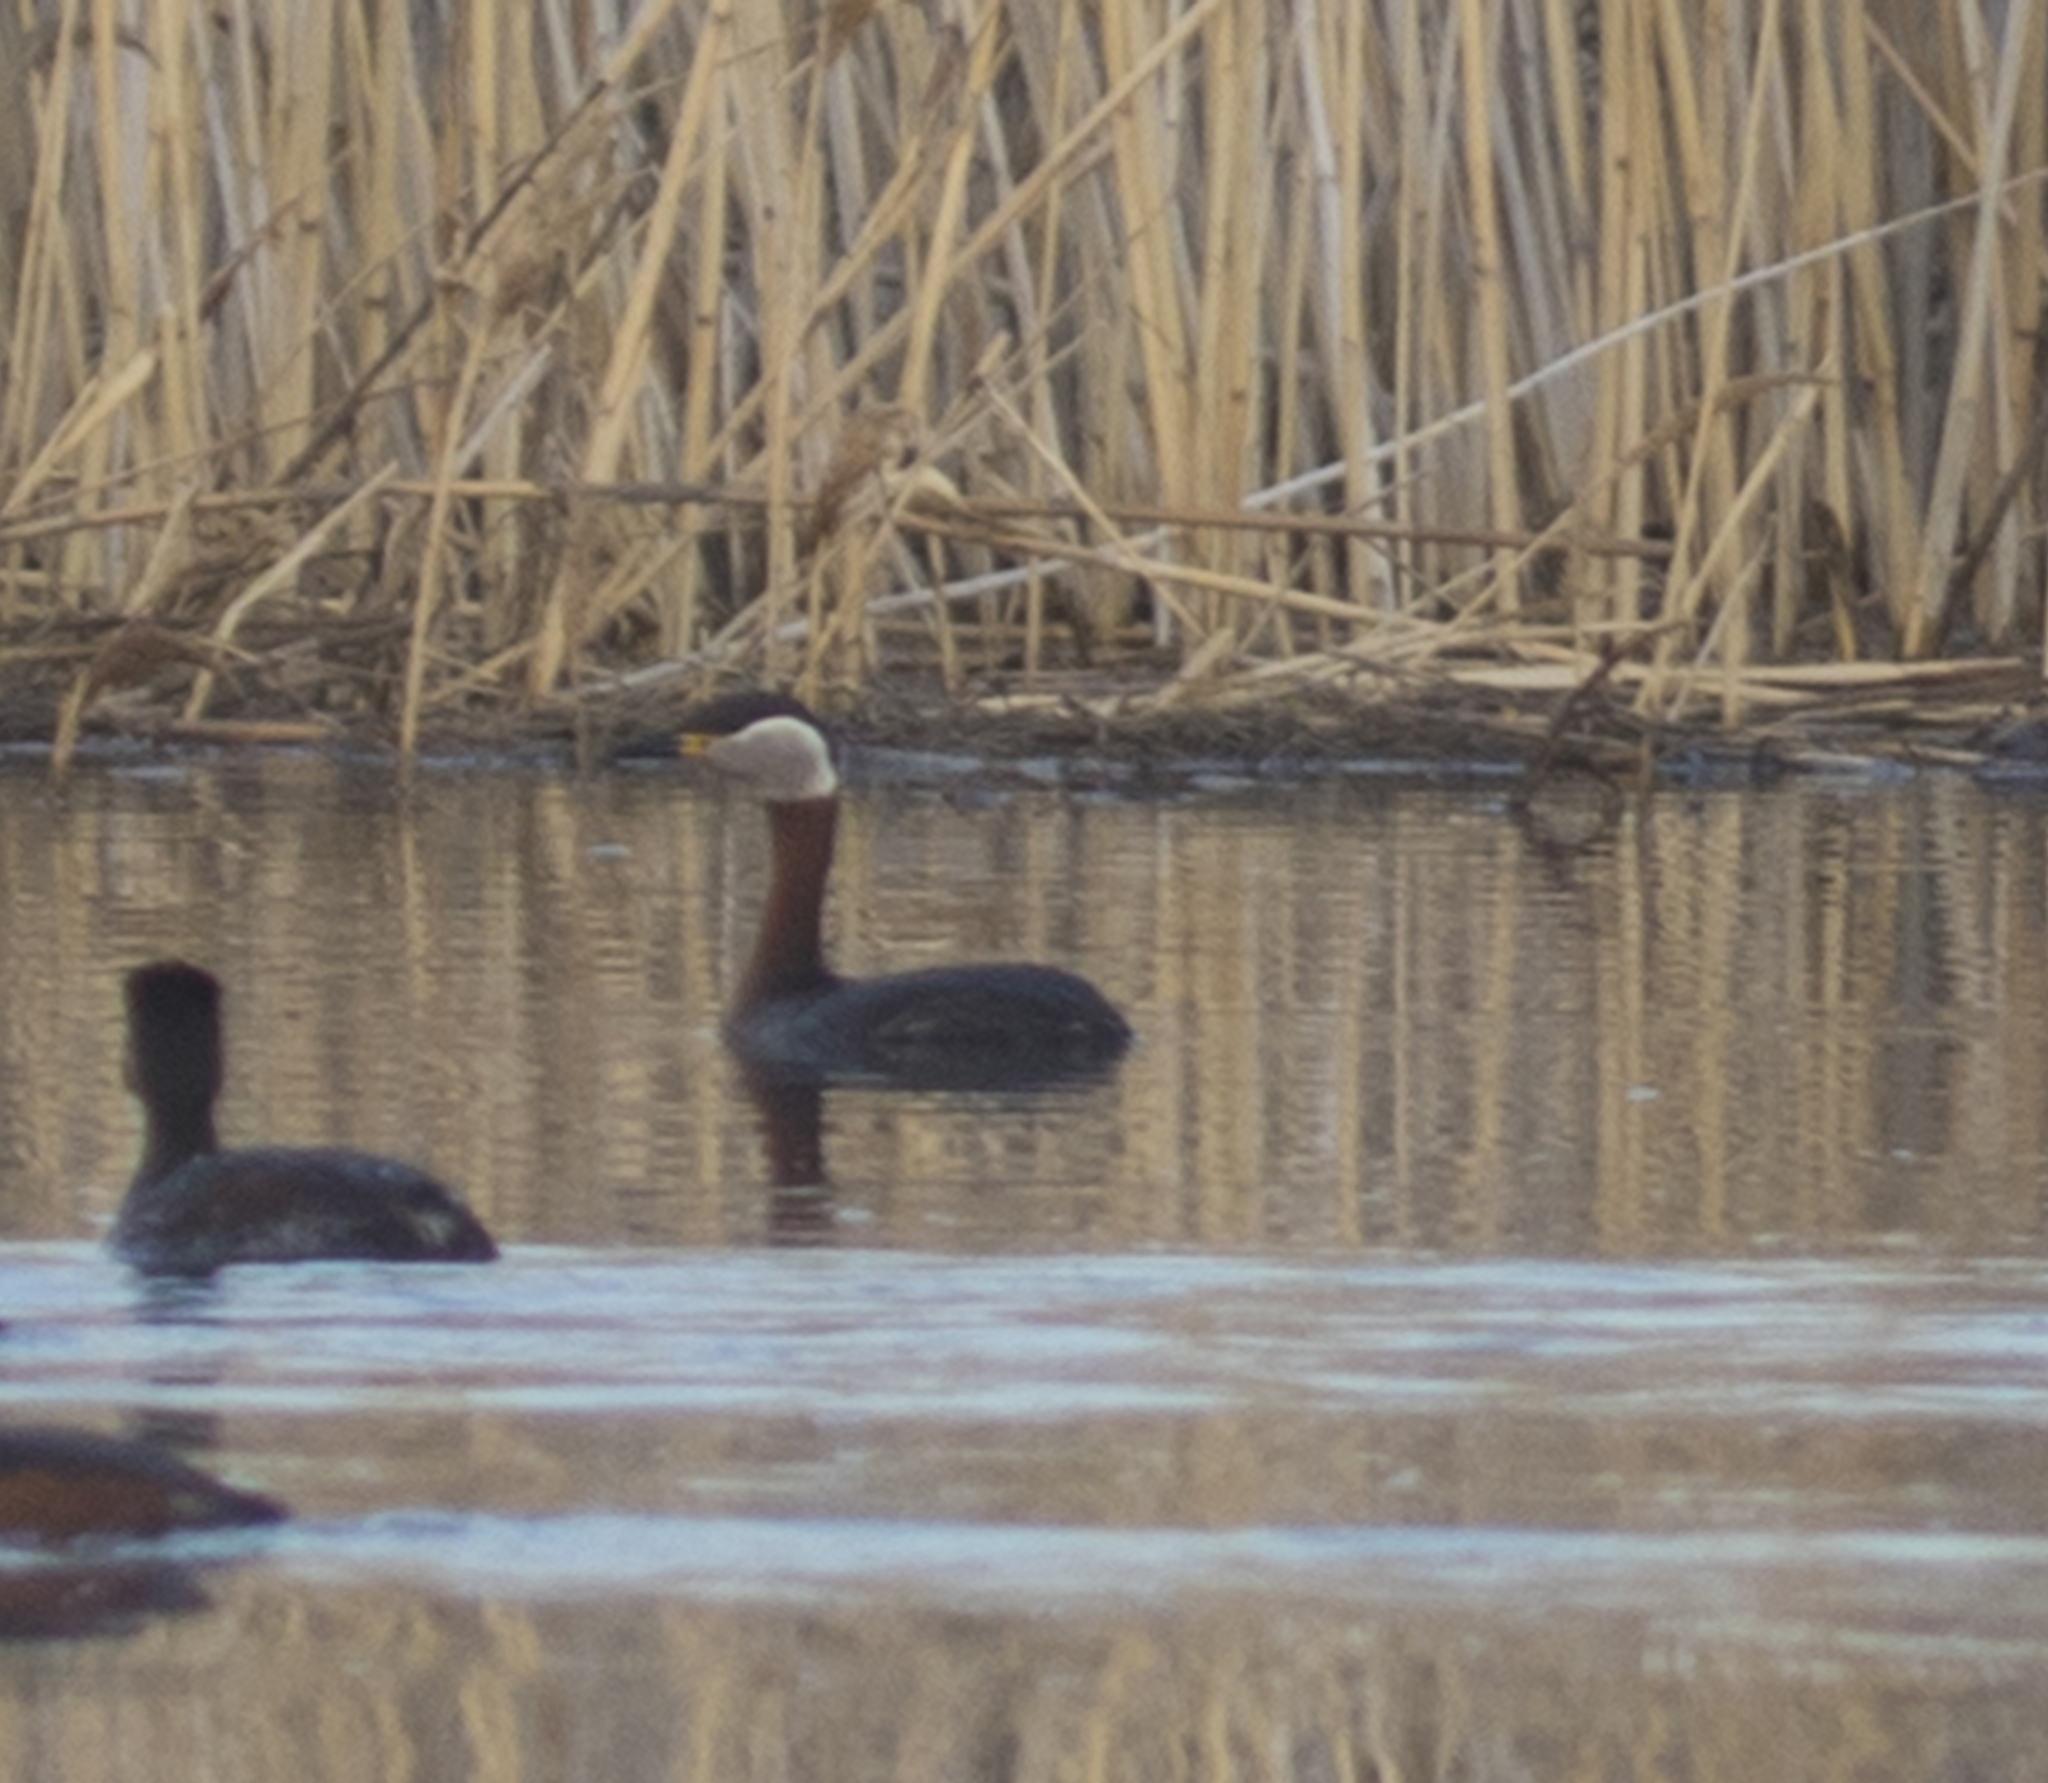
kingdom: Animalia
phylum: Chordata
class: Aves
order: Podicipediformes
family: Podicipedidae
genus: Podiceps
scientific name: Podiceps grisegena
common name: Red-necked grebe
